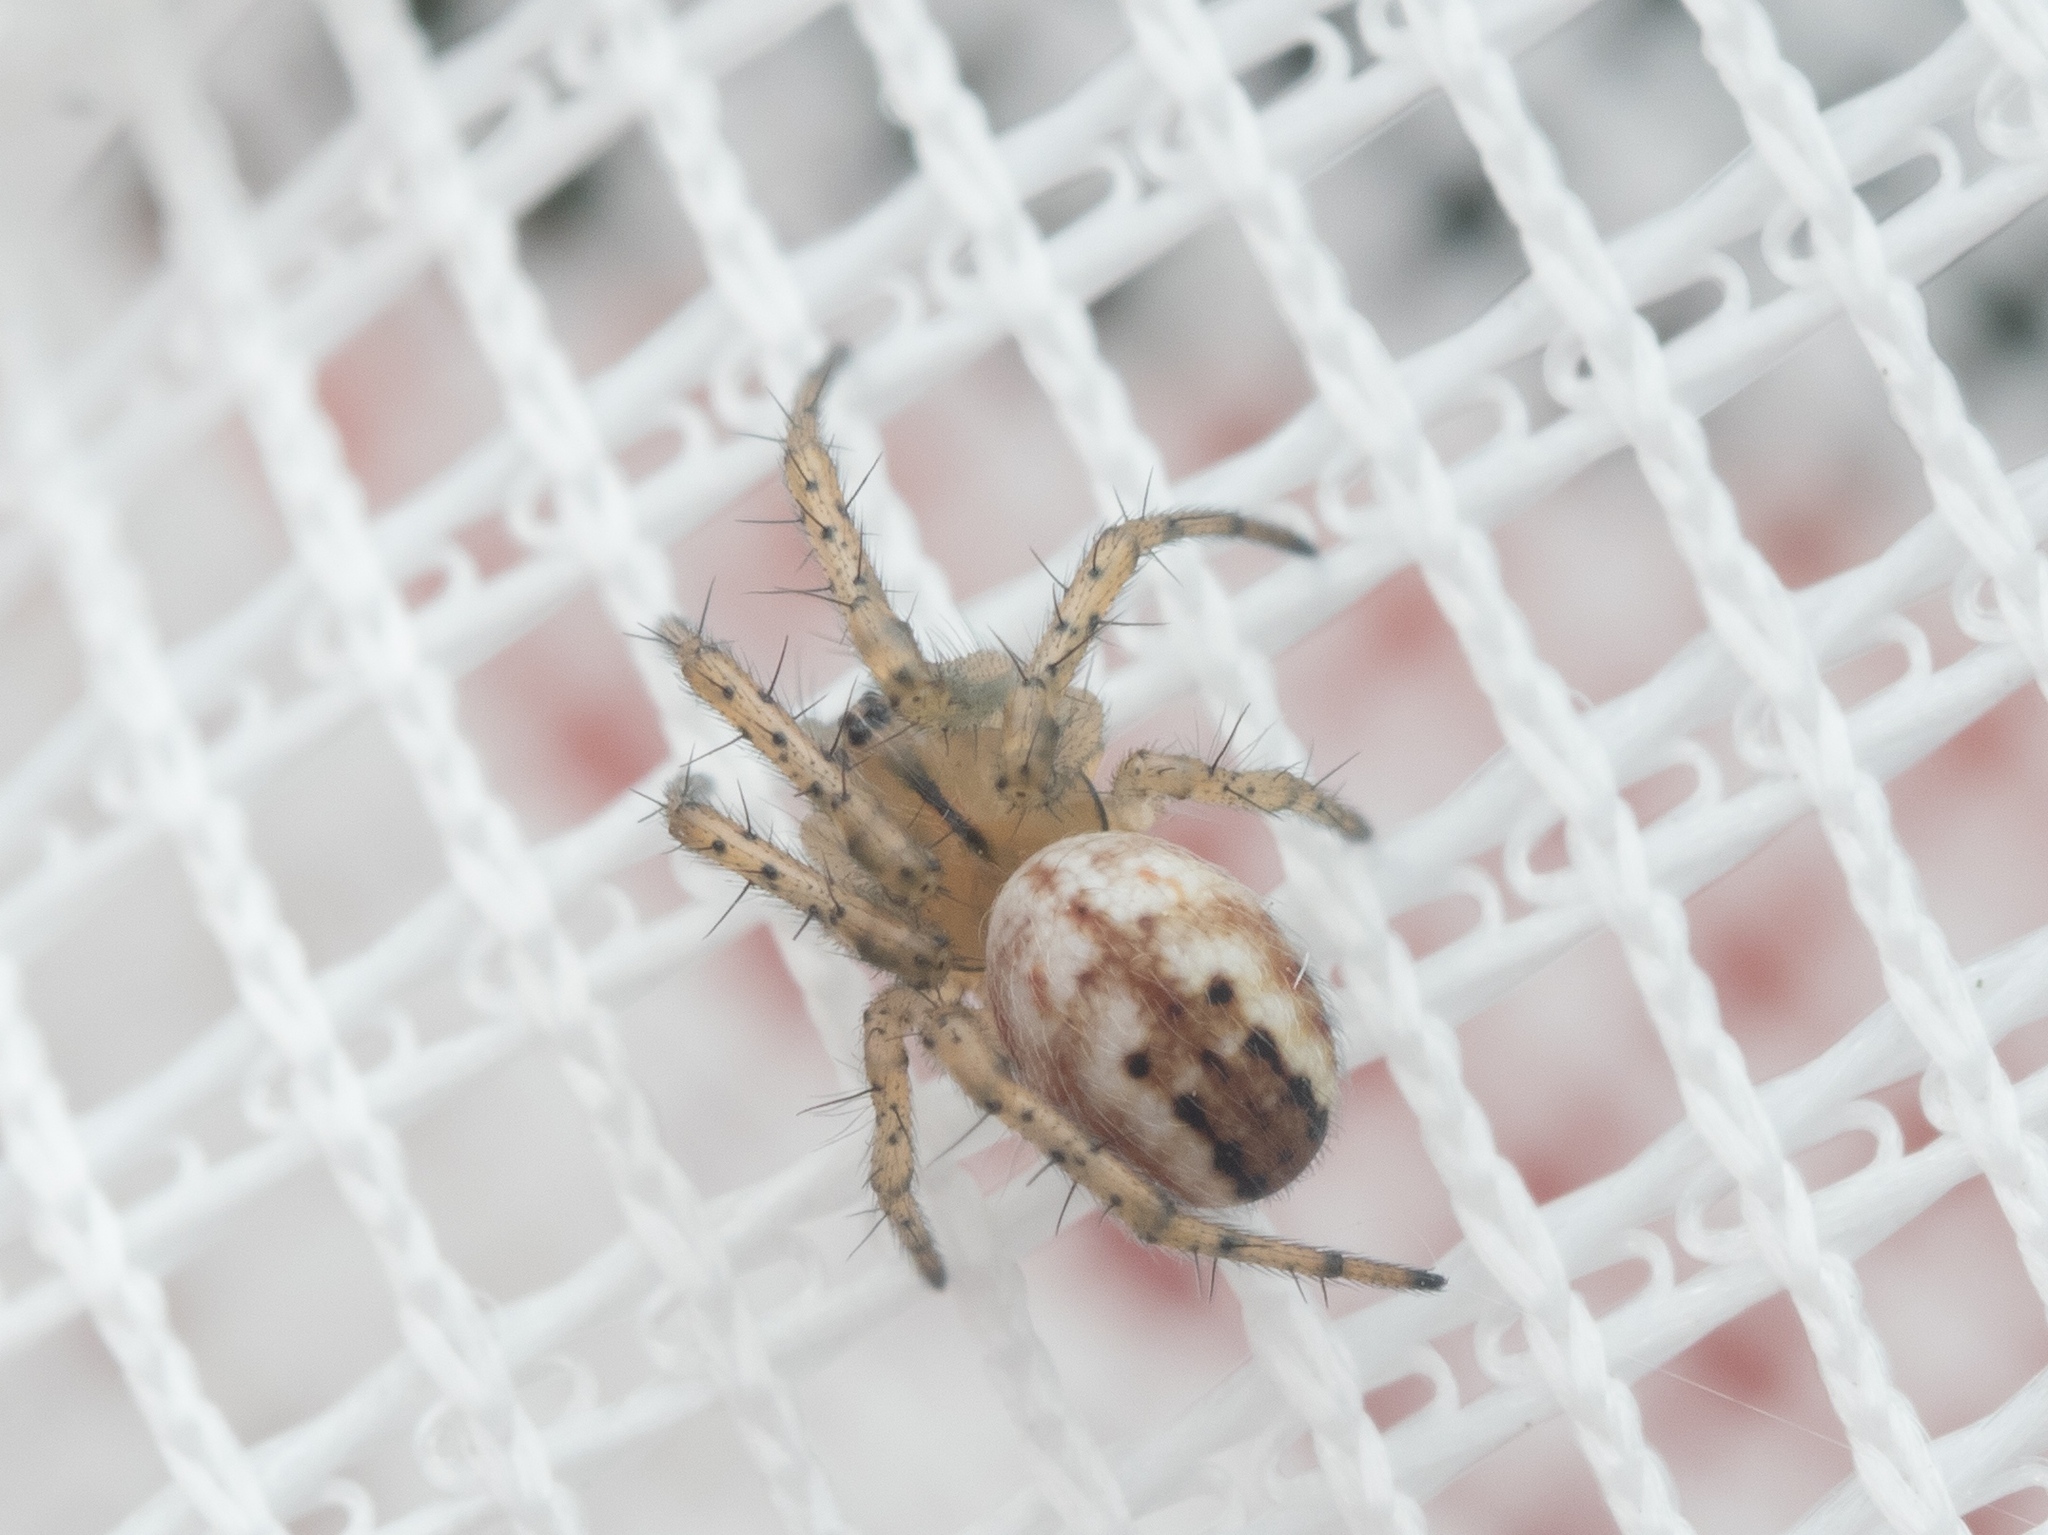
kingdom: Animalia
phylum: Arthropoda
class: Arachnida
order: Araneae
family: Araneidae
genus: Mangora
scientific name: Mangora acalypha
